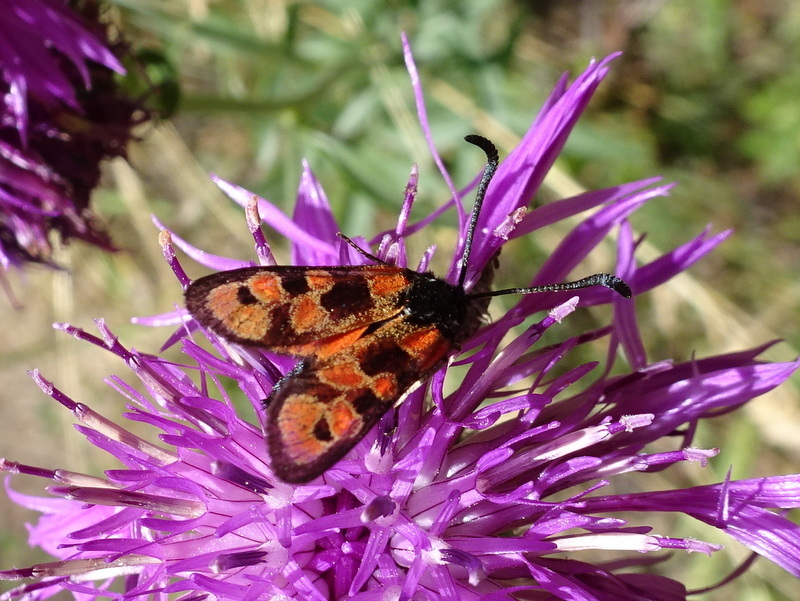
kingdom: Animalia
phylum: Arthropoda
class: Insecta
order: Lepidoptera
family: Zygaenidae
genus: Zygaena
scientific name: Zygaena hilaris
